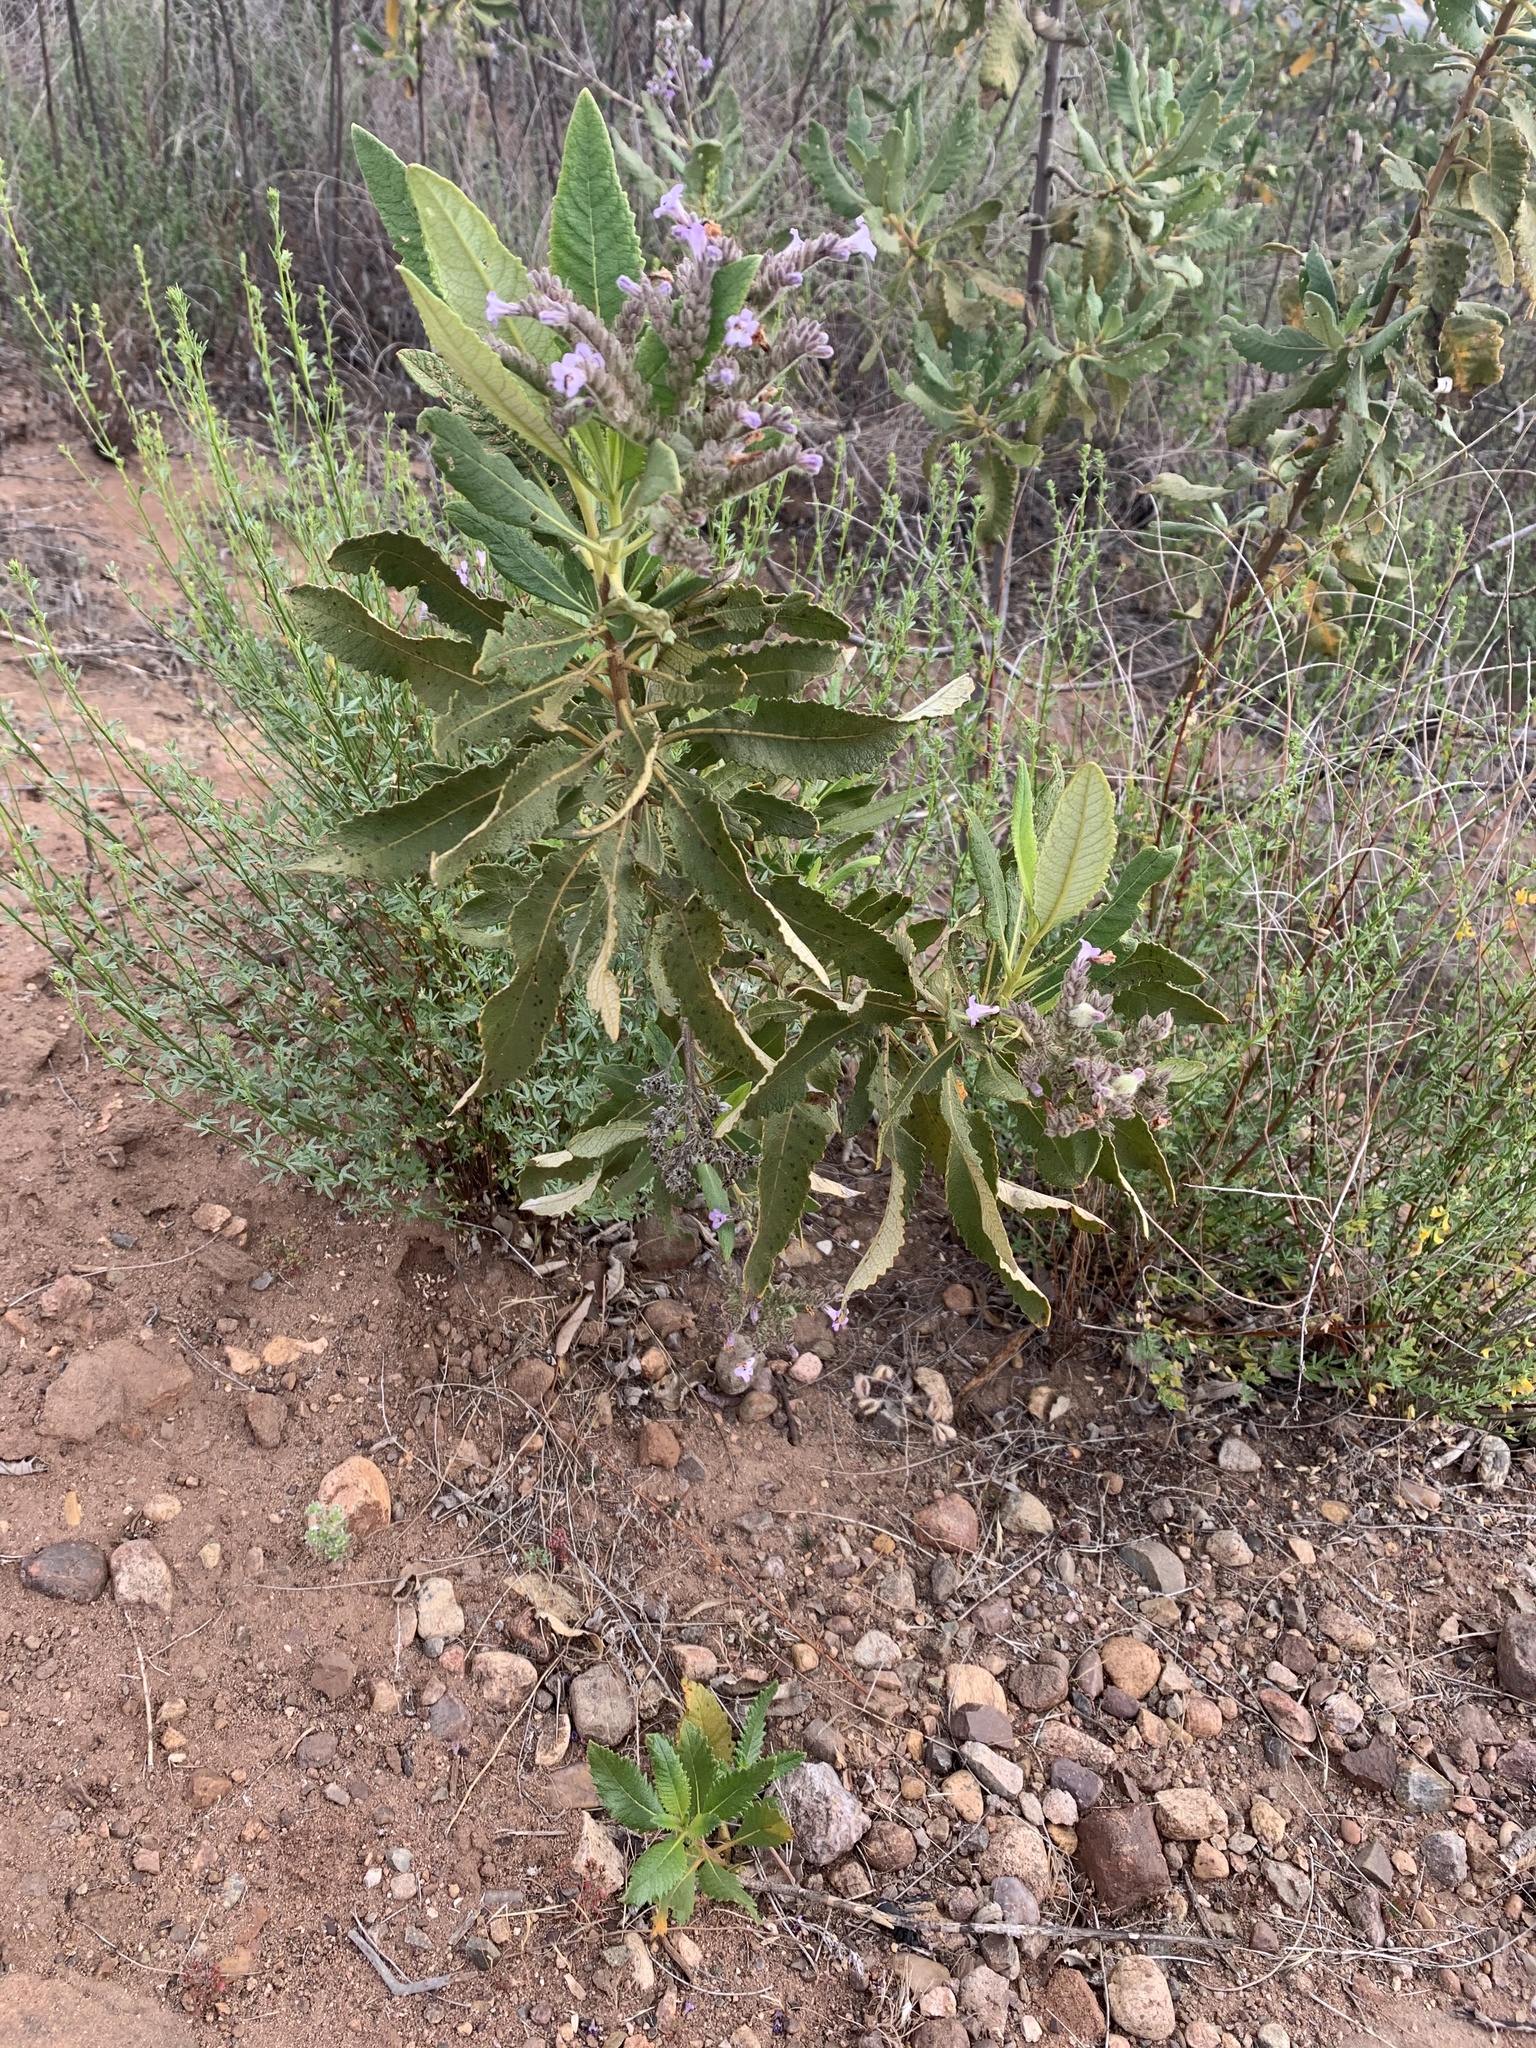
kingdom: Plantae
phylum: Tracheophyta
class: Magnoliopsida
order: Boraginales
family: Namaceae
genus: Eriodictyon
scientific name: Eriodictyon crassifolium
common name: Thick-leaf yerba-santa
